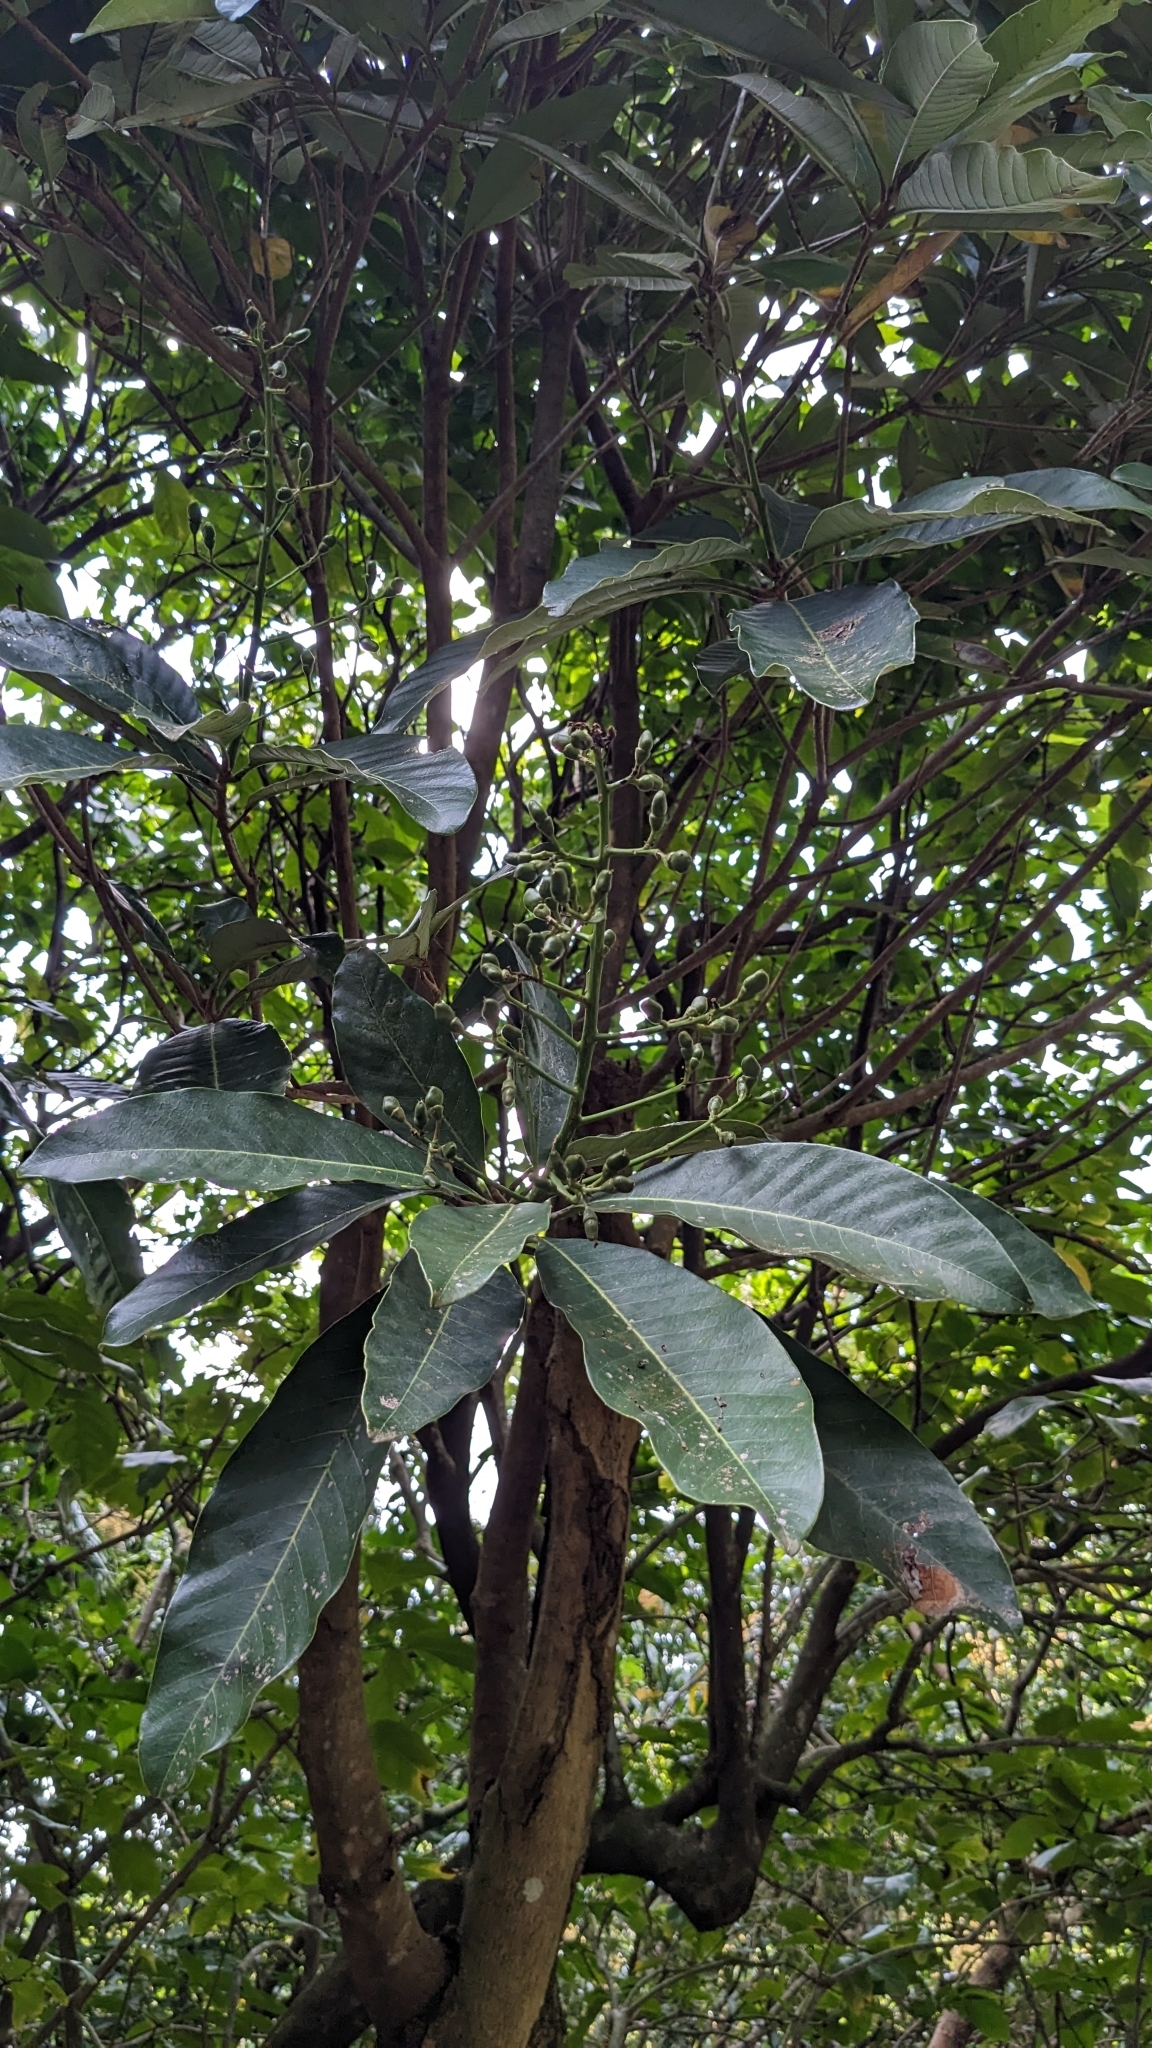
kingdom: Plantae
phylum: Tracheophyta
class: Magnoliopsida
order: Sapindales
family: Anacardiaceae
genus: Semecarpus
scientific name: Semecarpus cuneiformis
